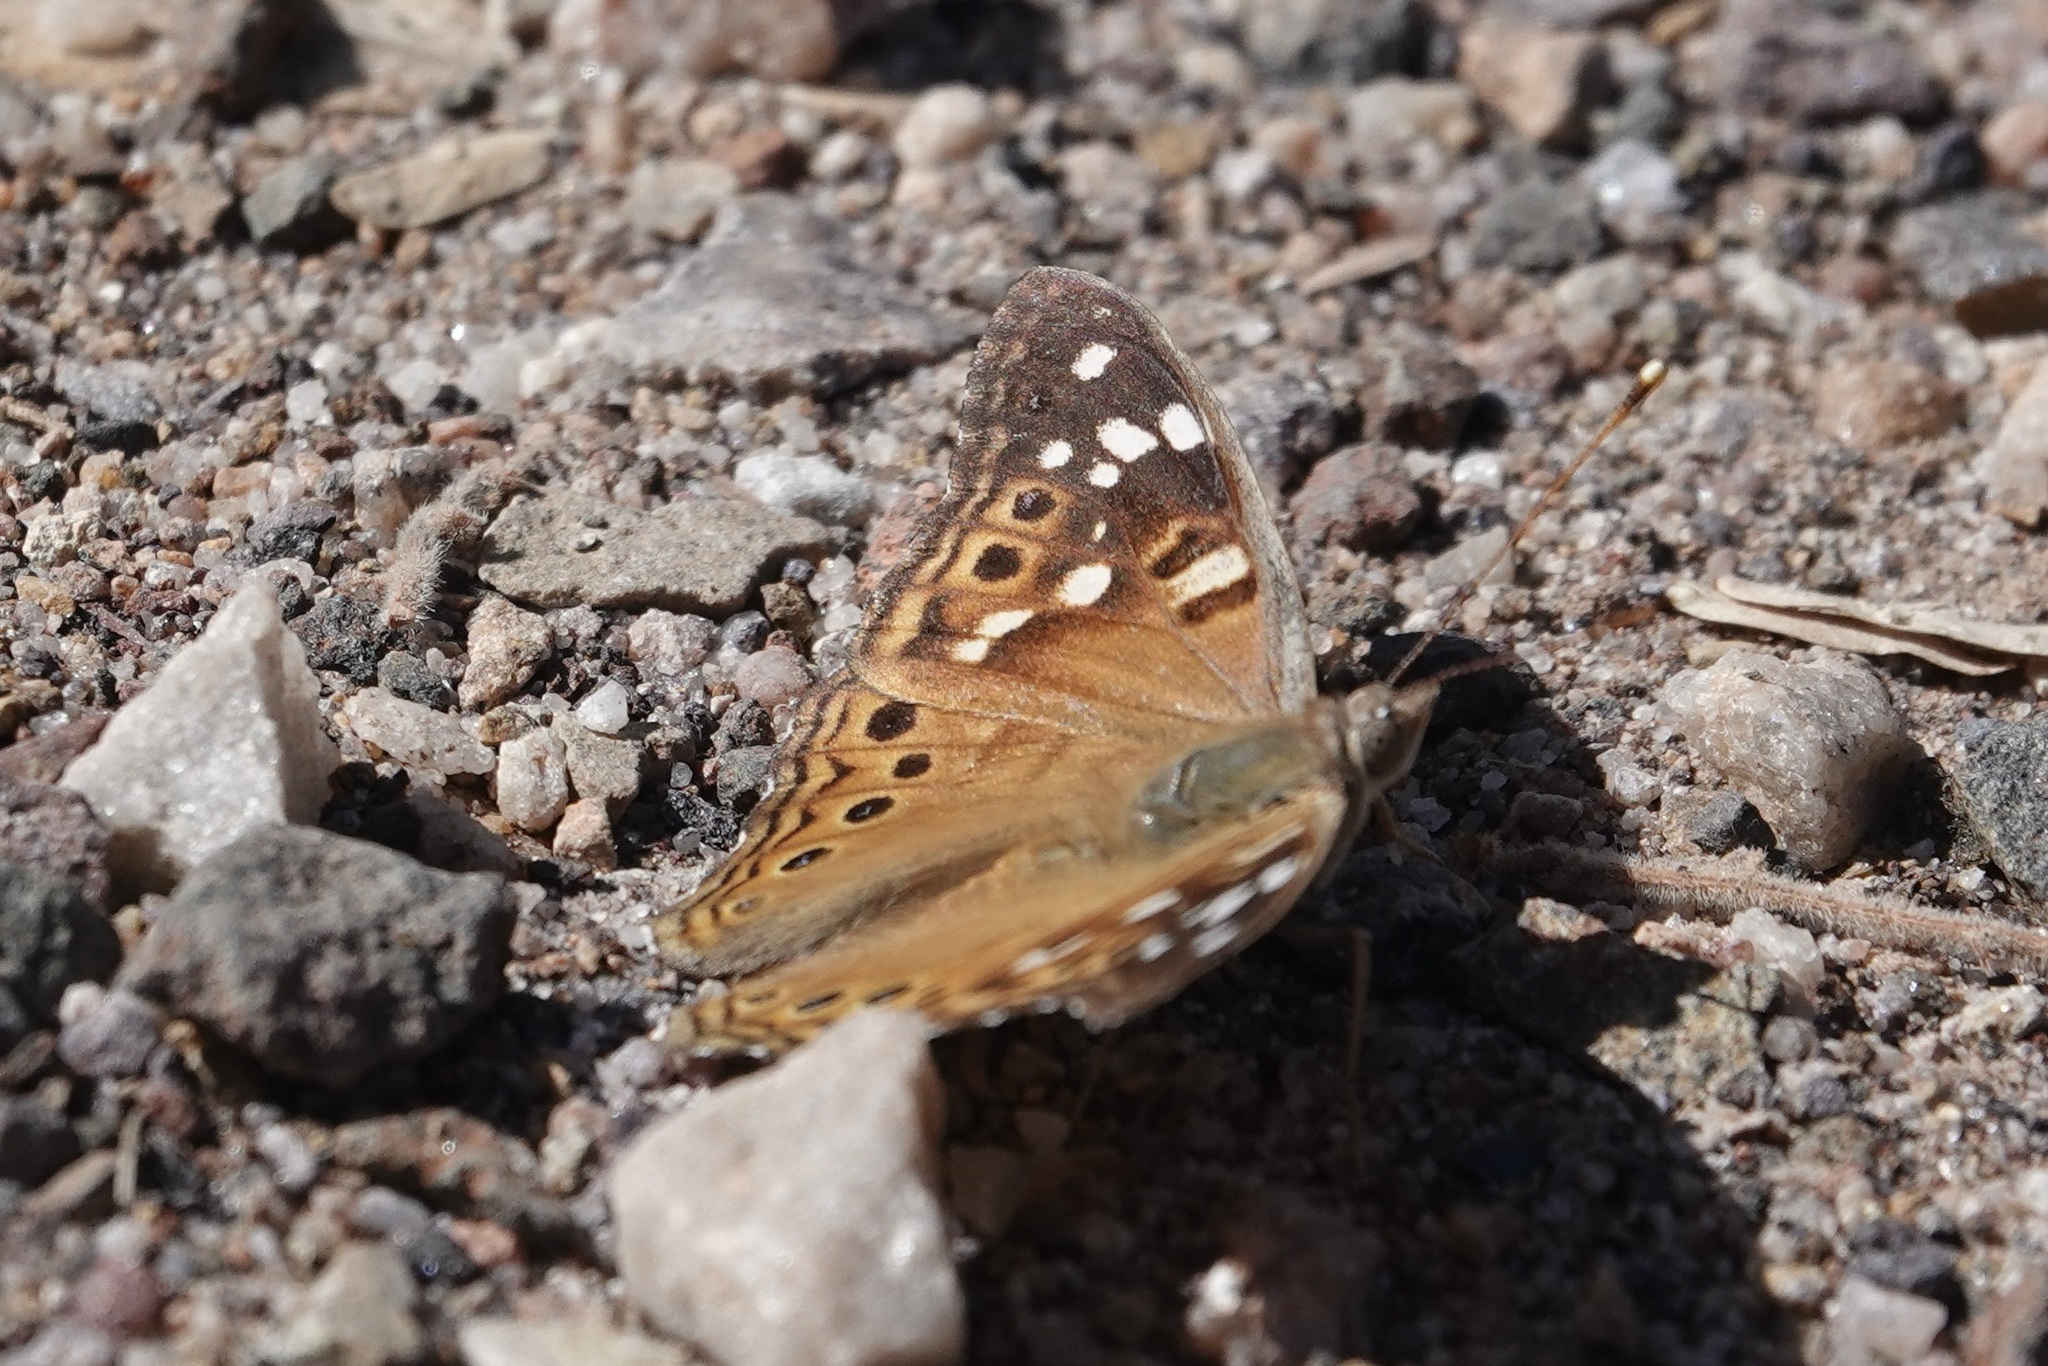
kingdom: Animalia
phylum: Arthropoda
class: Insecta
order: Lepidoptera
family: Nymphalidae
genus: Asterocampa
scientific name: Asterocampa leilia
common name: Empress leilia
